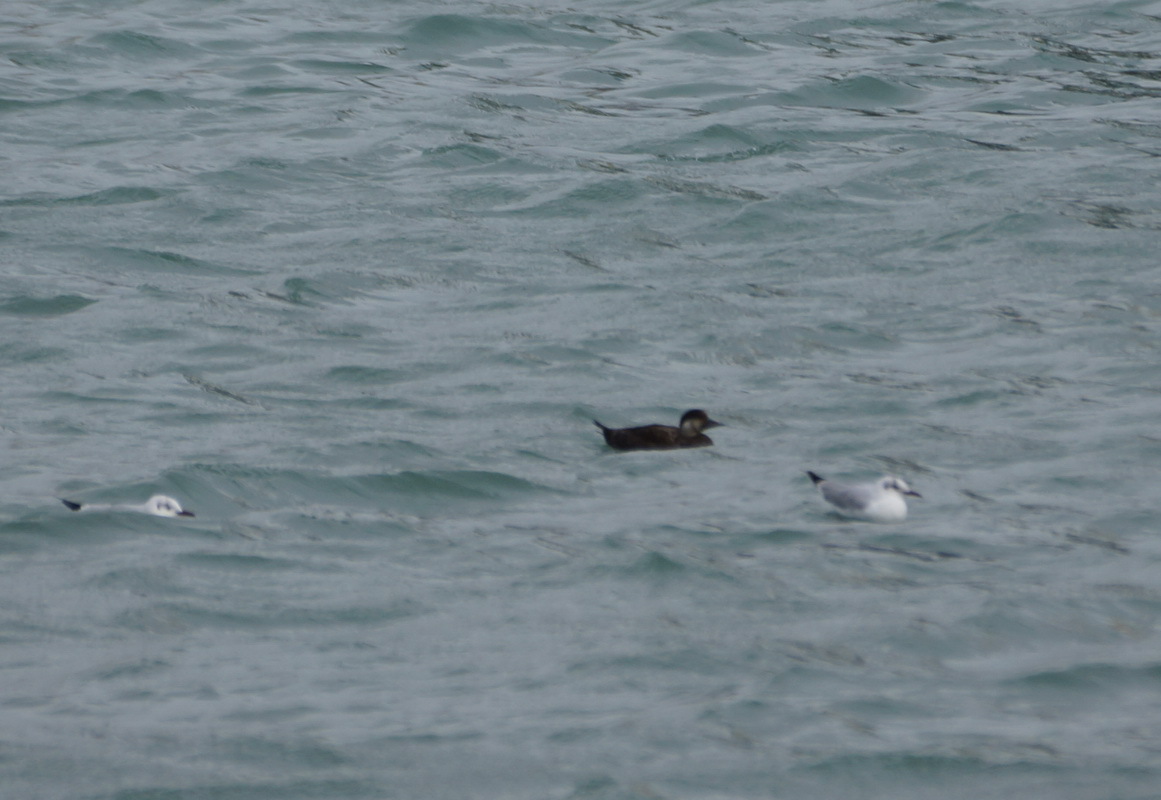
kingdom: Animalia
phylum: Chordata
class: Aves
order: Anseriformes
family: Anatidae
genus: Melanitta
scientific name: Melanitta nigra
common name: Common scoter
